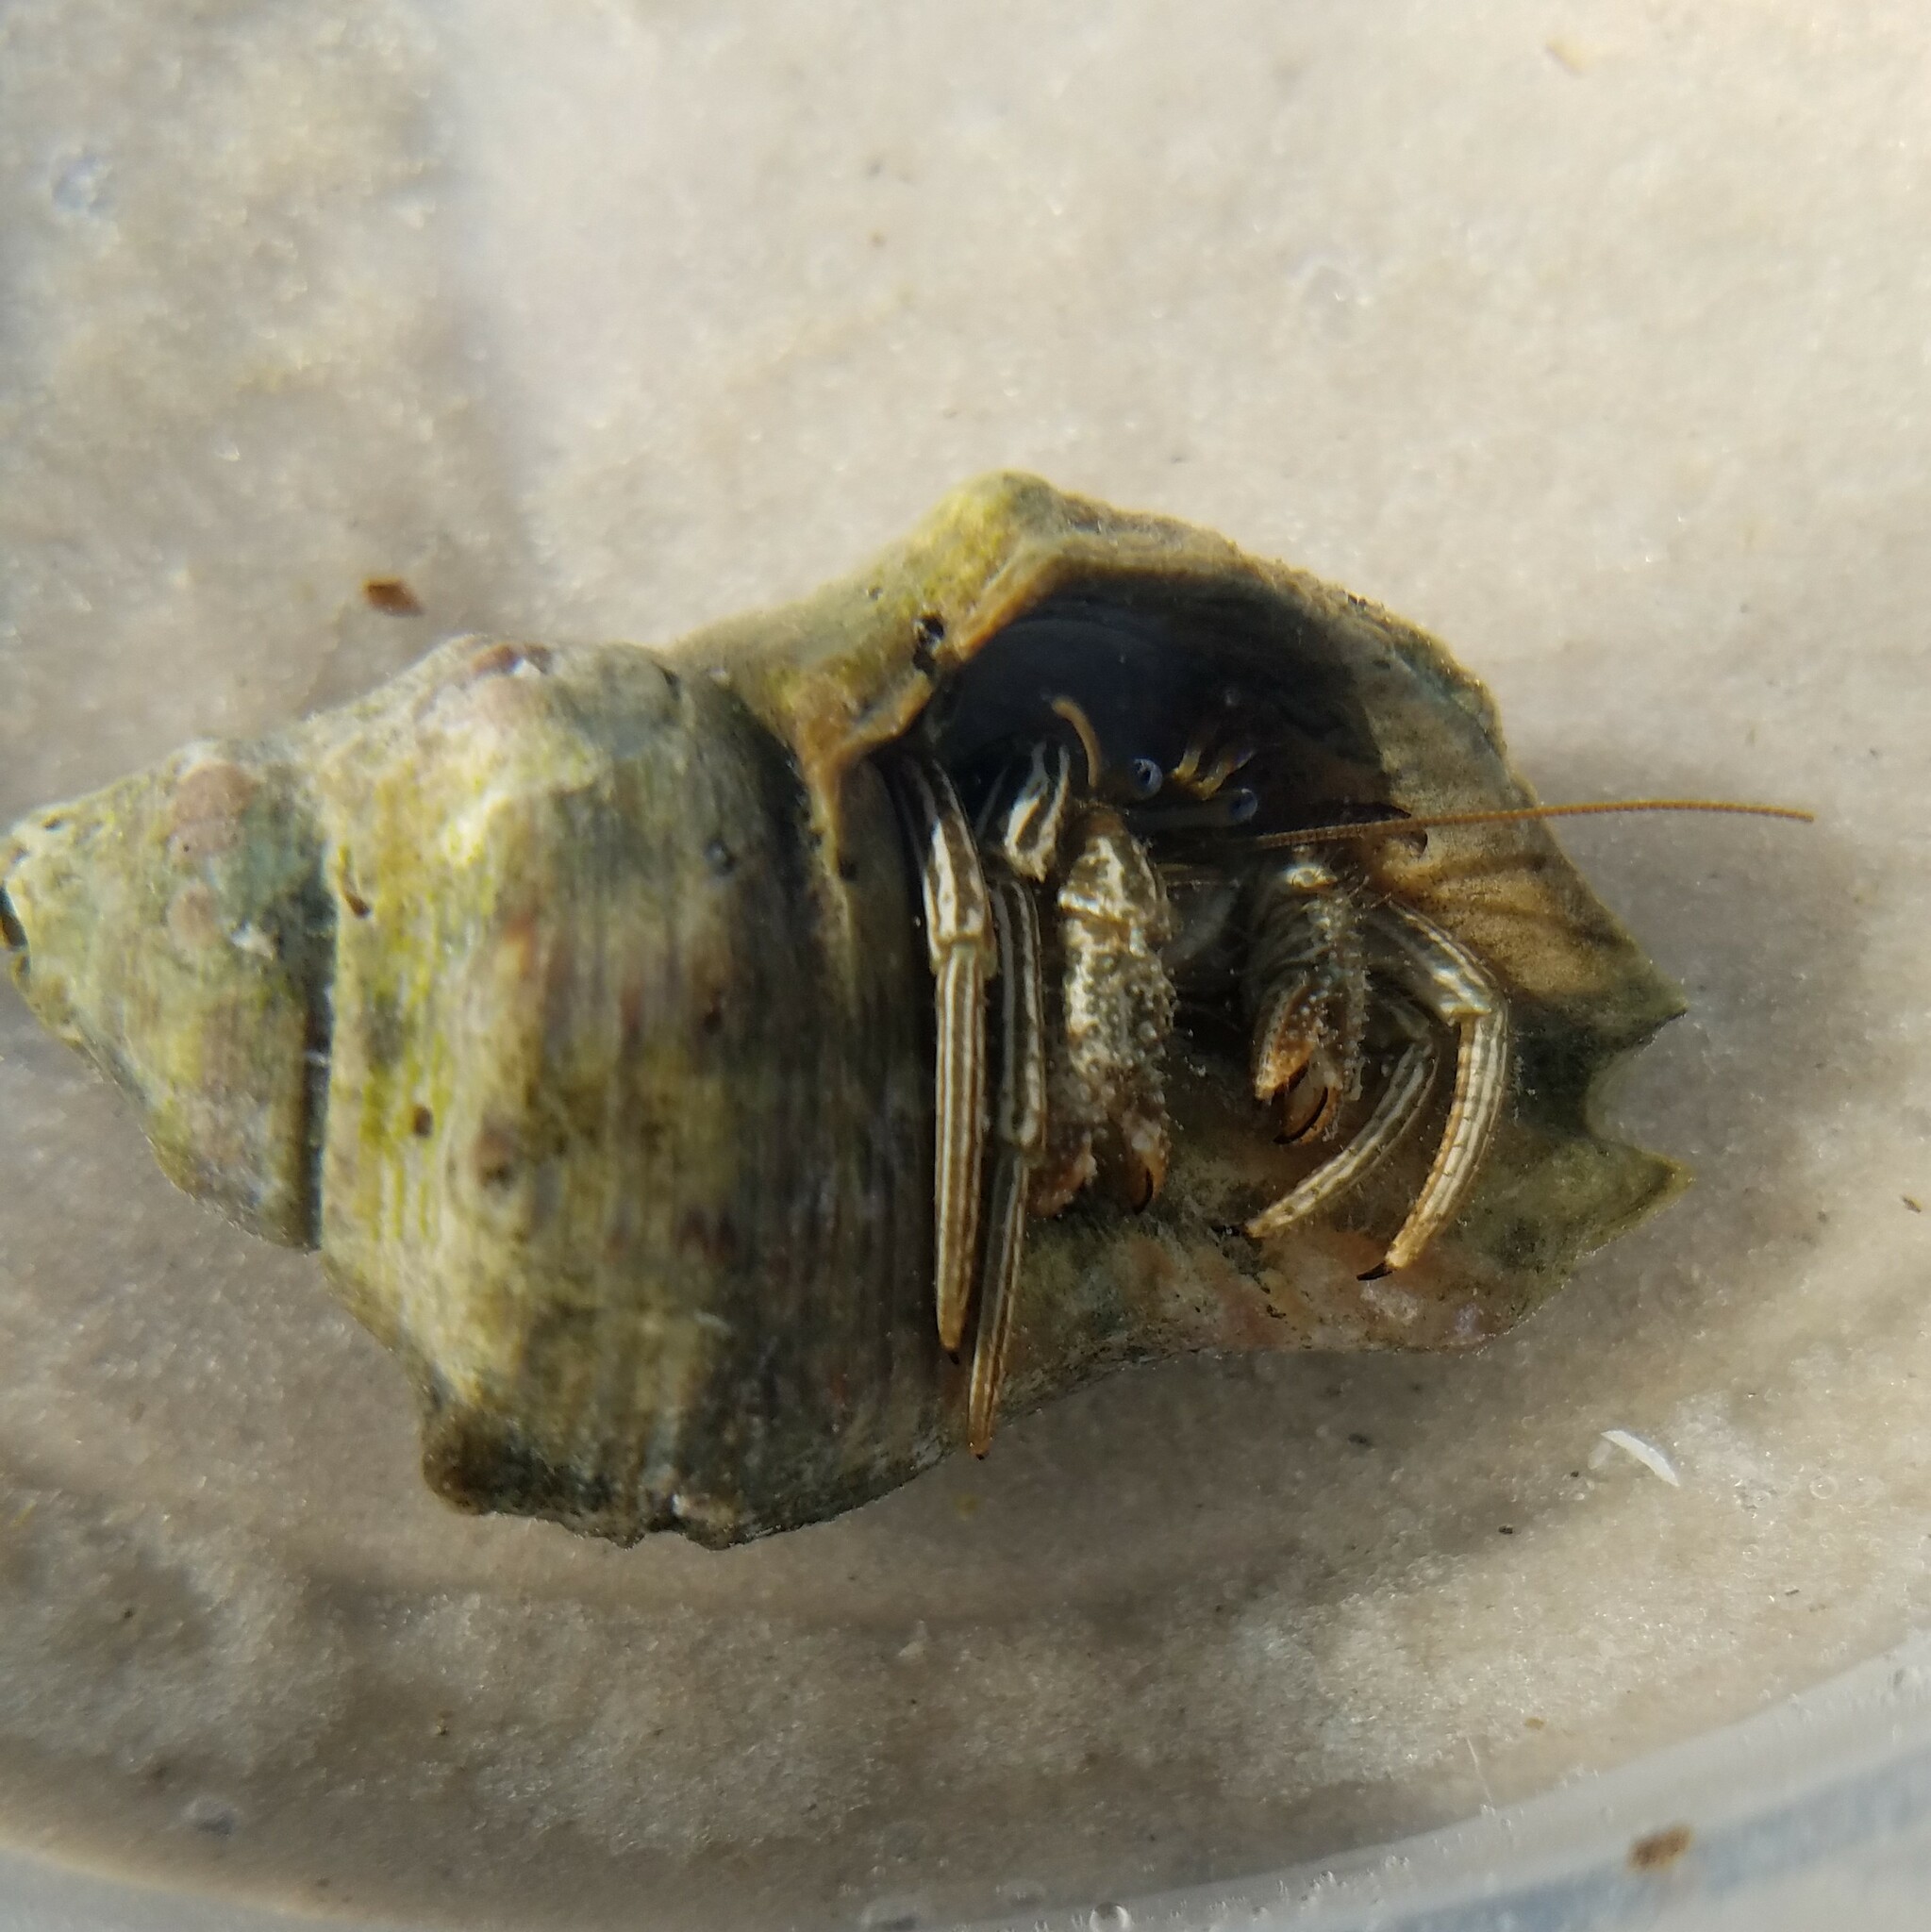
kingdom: Animalia
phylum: Arthropoda
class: Malacostraca
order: Decapoda
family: Diogenidae
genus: Clibanarius
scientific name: Clibanarius vittatus
